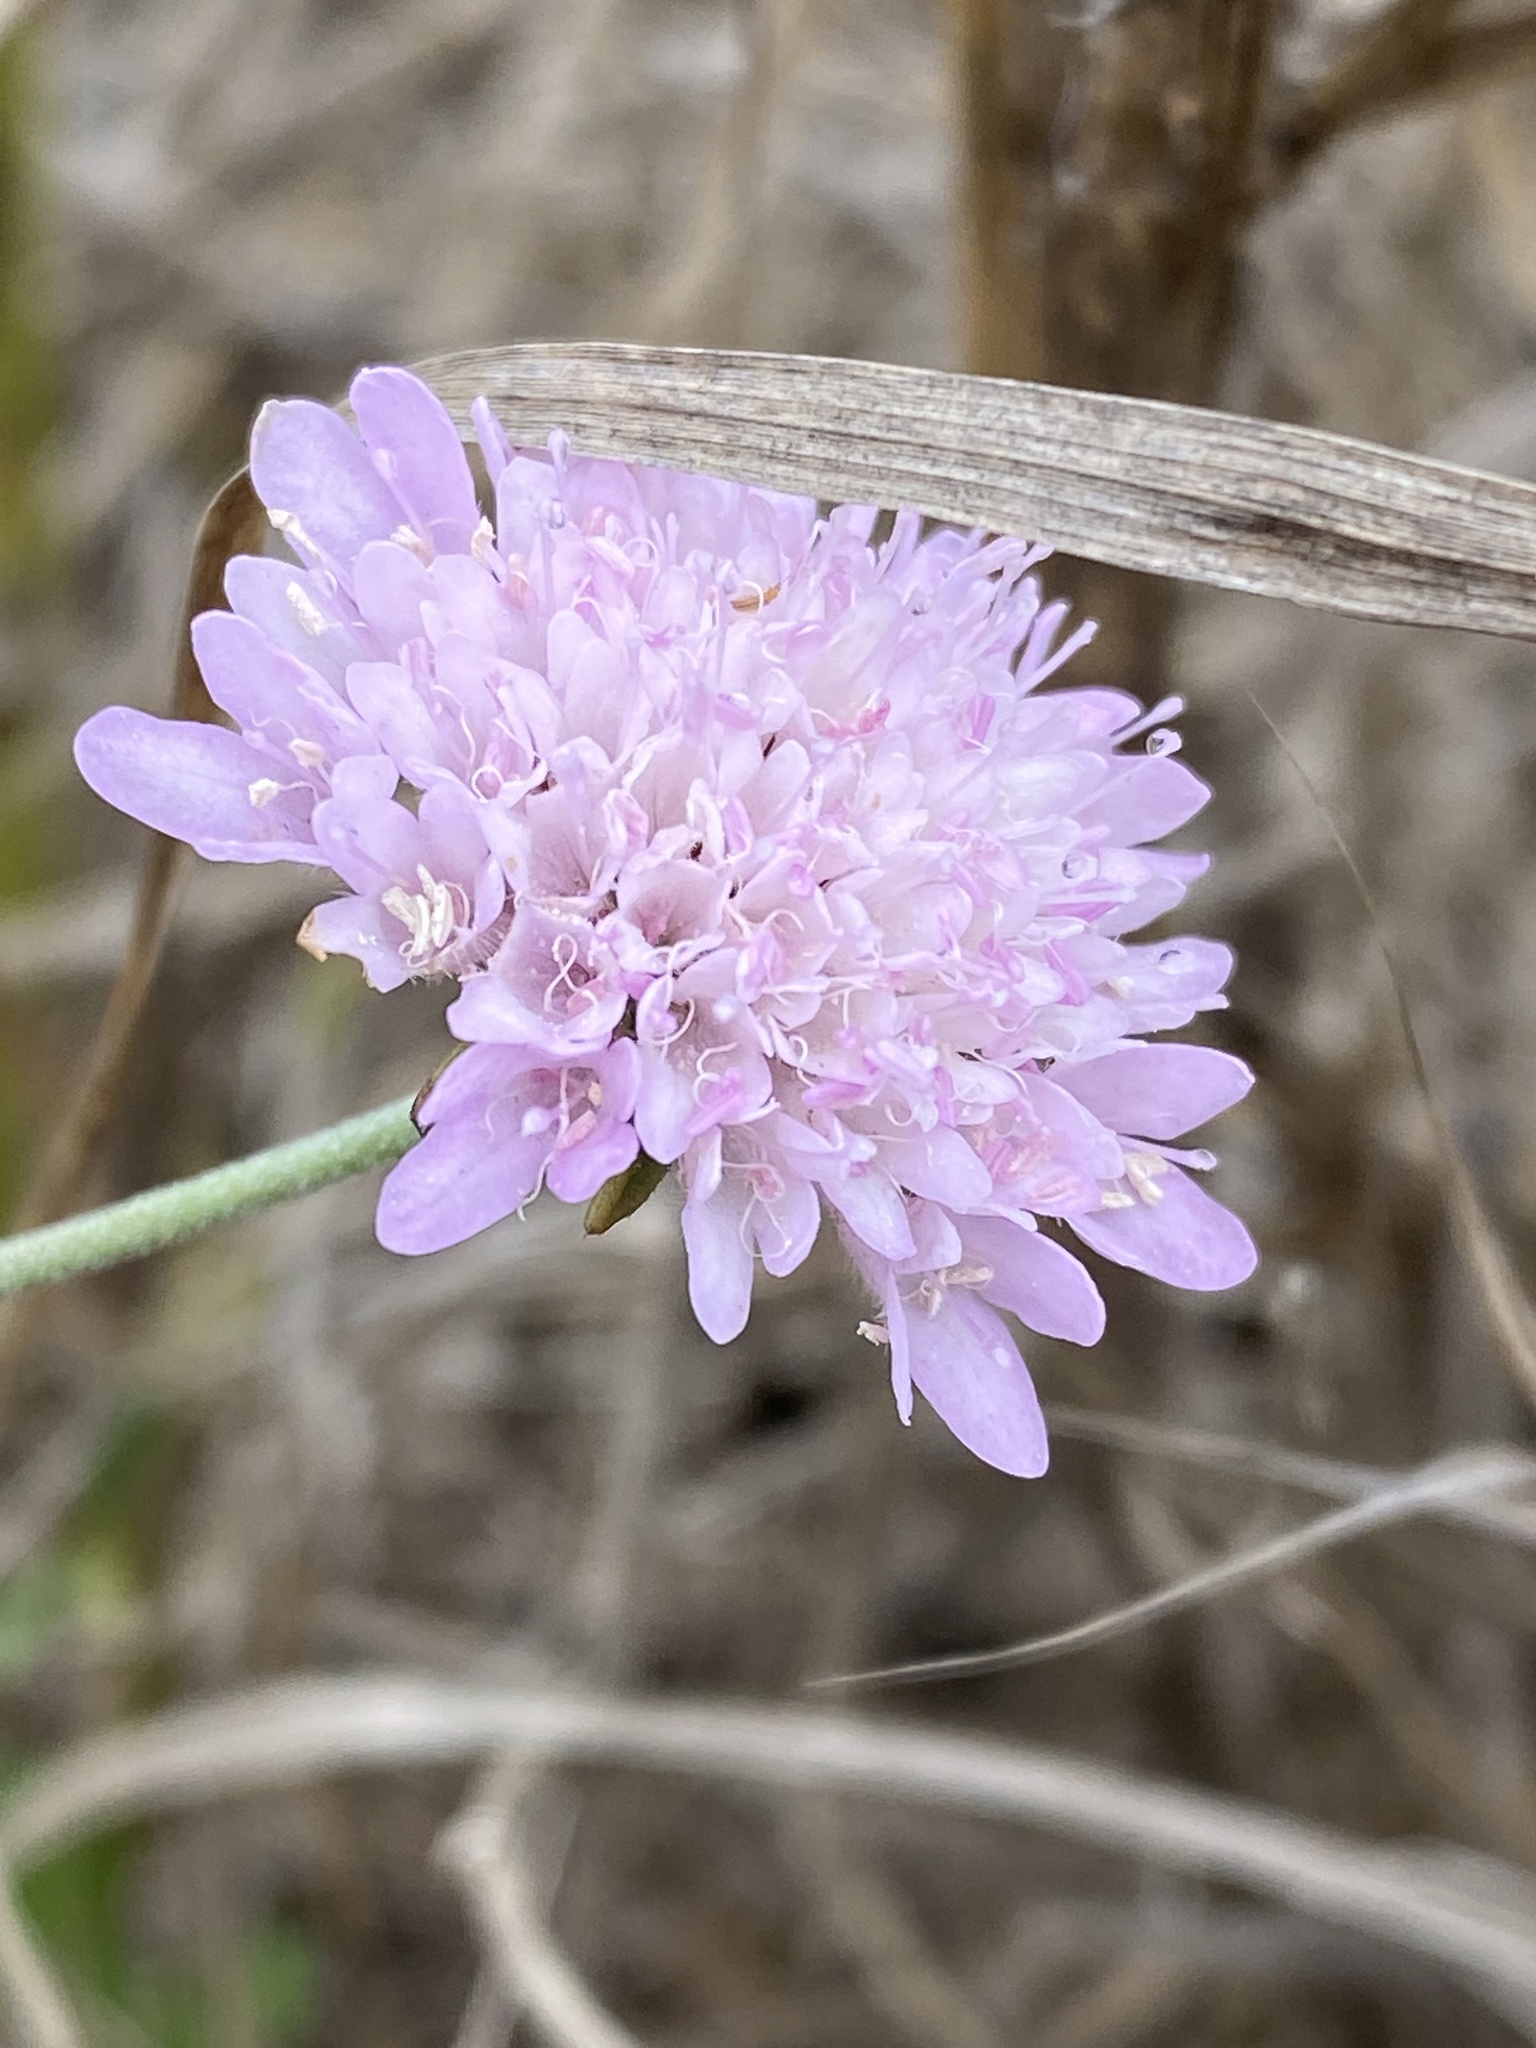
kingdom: Plantae
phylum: Tracheophyta
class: Magnoliopsida
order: Dipsacales
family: Caprifoliaceae
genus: Sixalix
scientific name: Sixalix atropurpurea
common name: Sweet scabious
